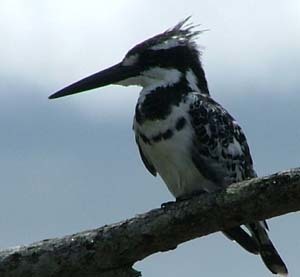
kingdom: Animalia
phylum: Chordata
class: Aves
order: Coraciiformes
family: Alcedinidae
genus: Ceryle
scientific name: Ceryle rudis
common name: Pied kingfisher
